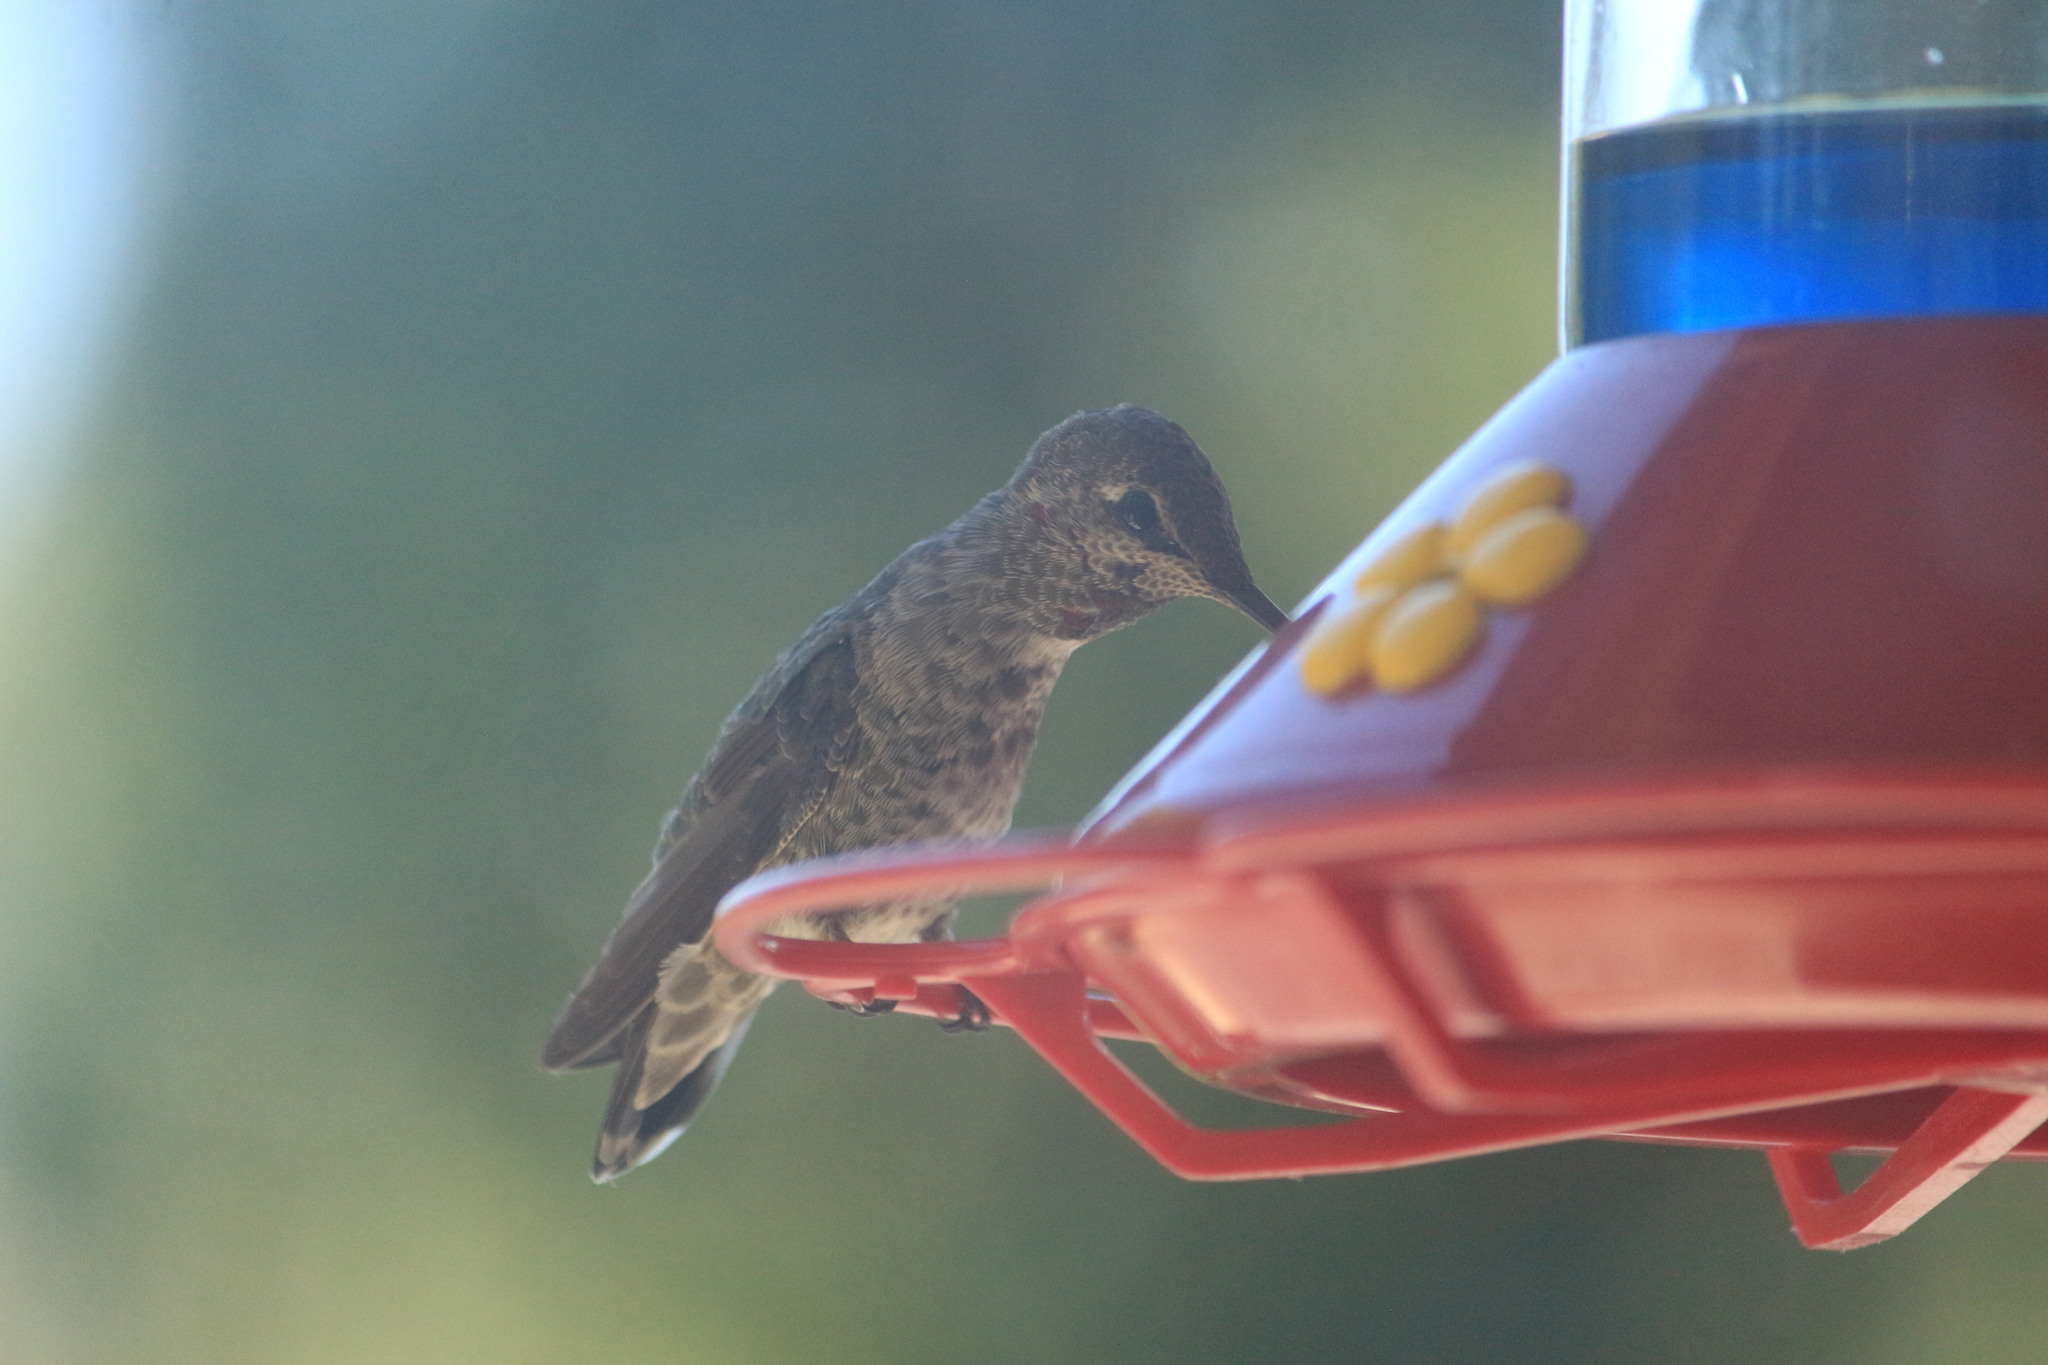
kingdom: Animalia
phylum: Chordata
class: Aves
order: Apodiformes
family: Trochilidae
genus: Calypte
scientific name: Calypte anna
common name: Anna's hummingbird
